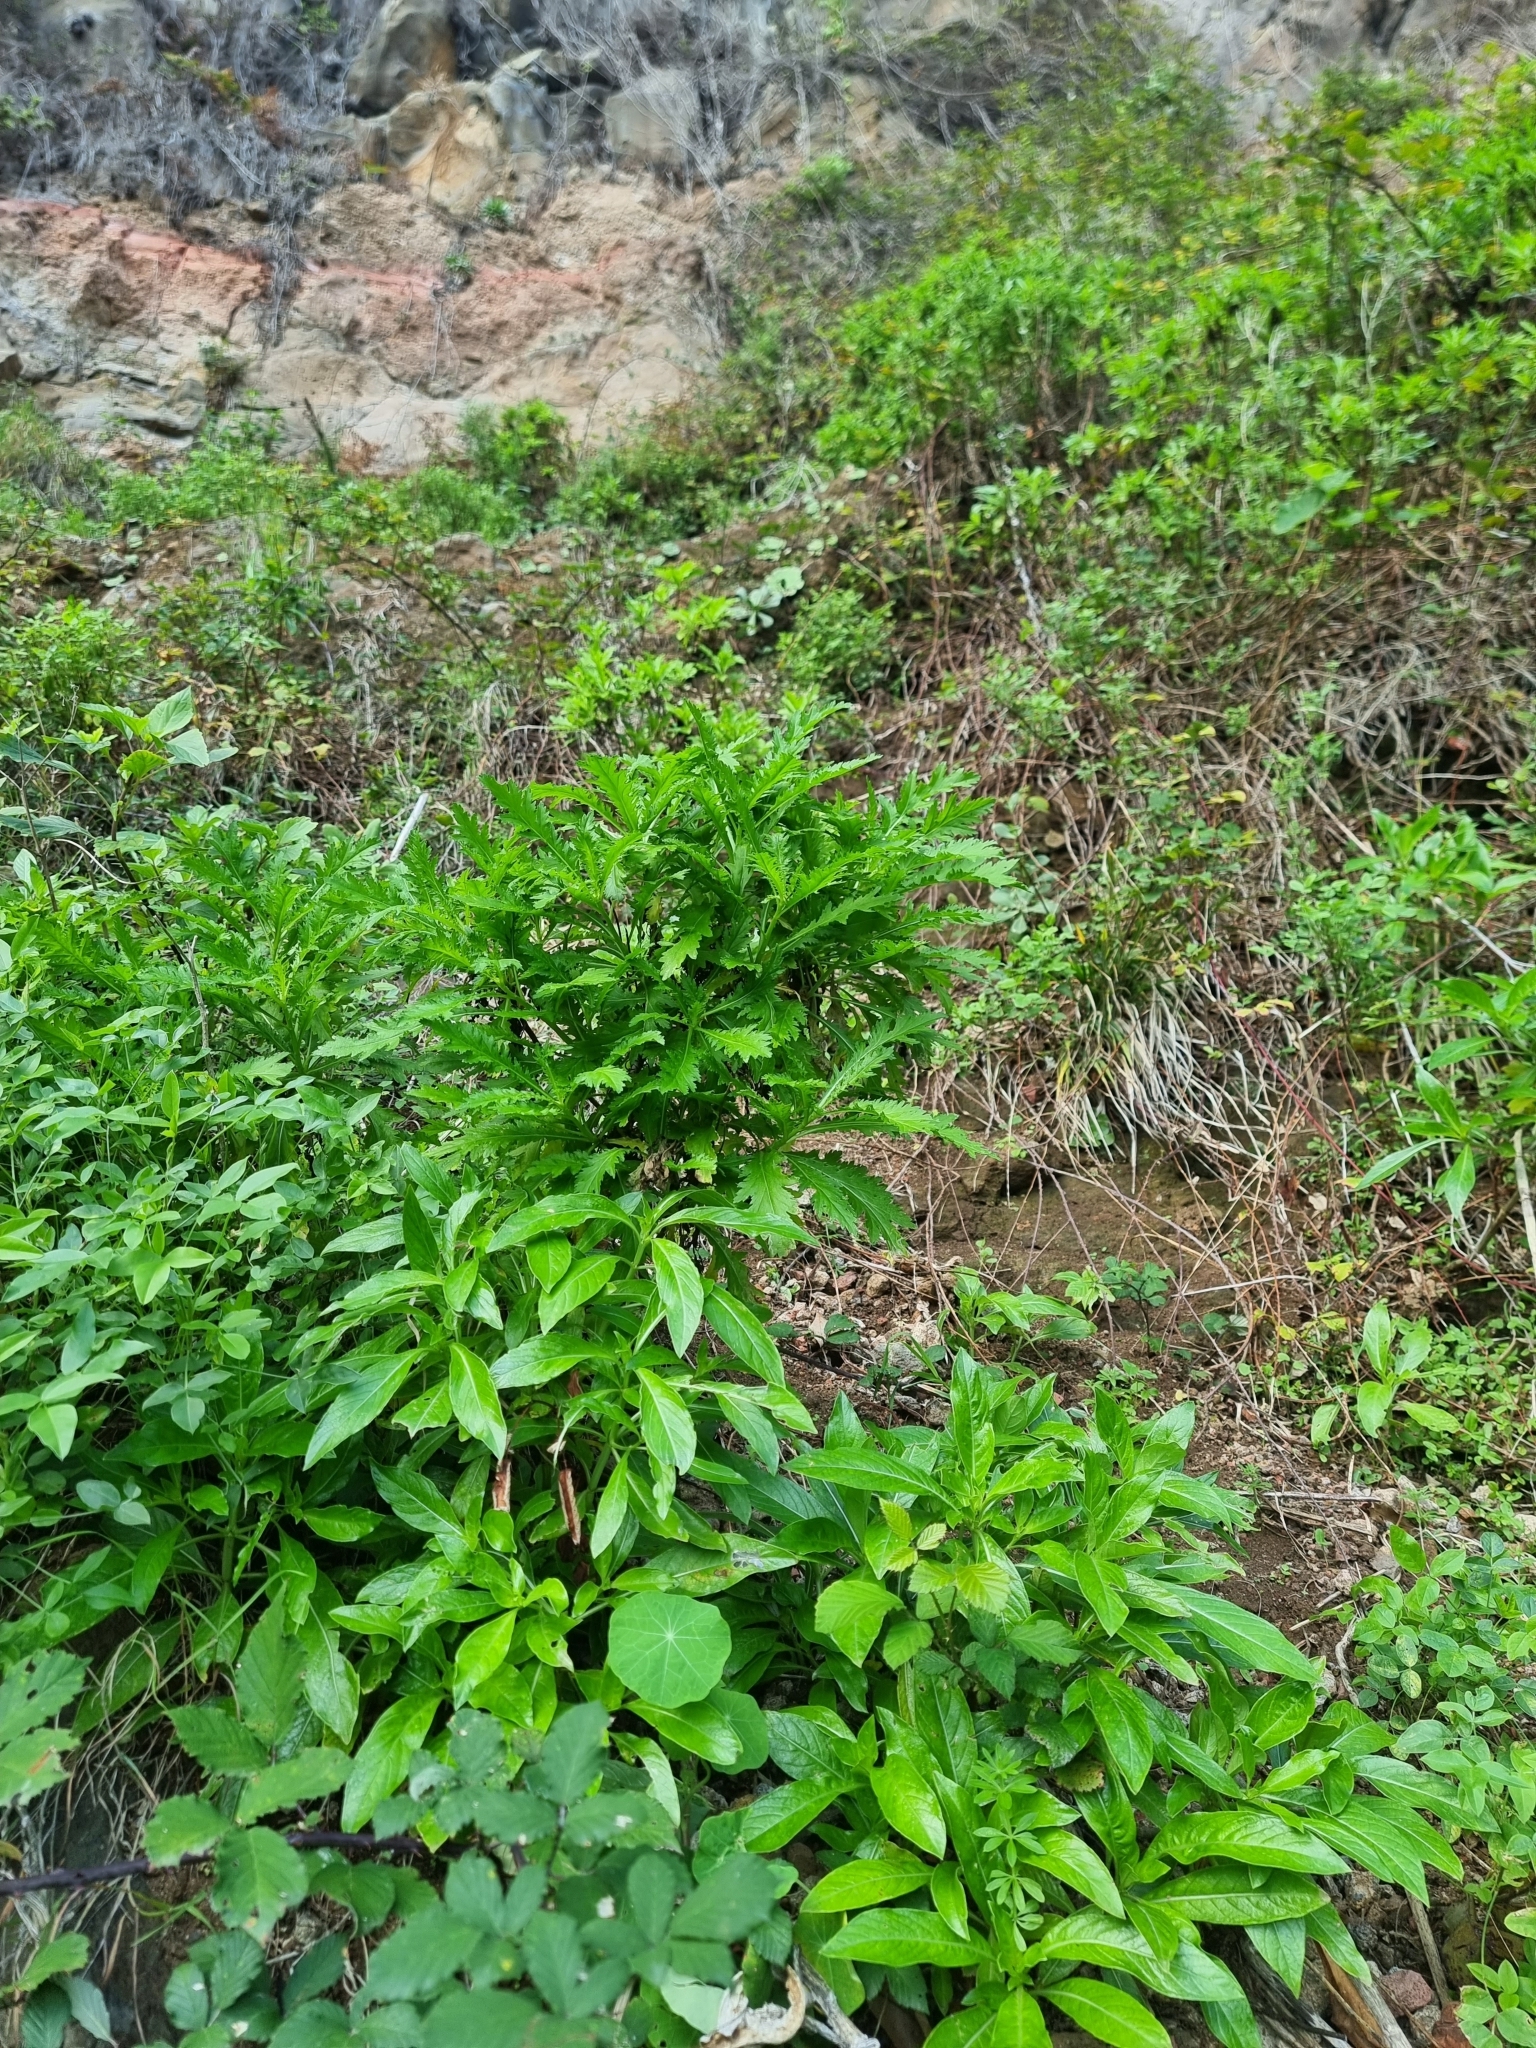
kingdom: Plantae
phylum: Tracheophyta
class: Magnoliopsida
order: Asterales
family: Asteraceae
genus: Argyranthemum
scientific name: Argyranthemum pinnatifidum
